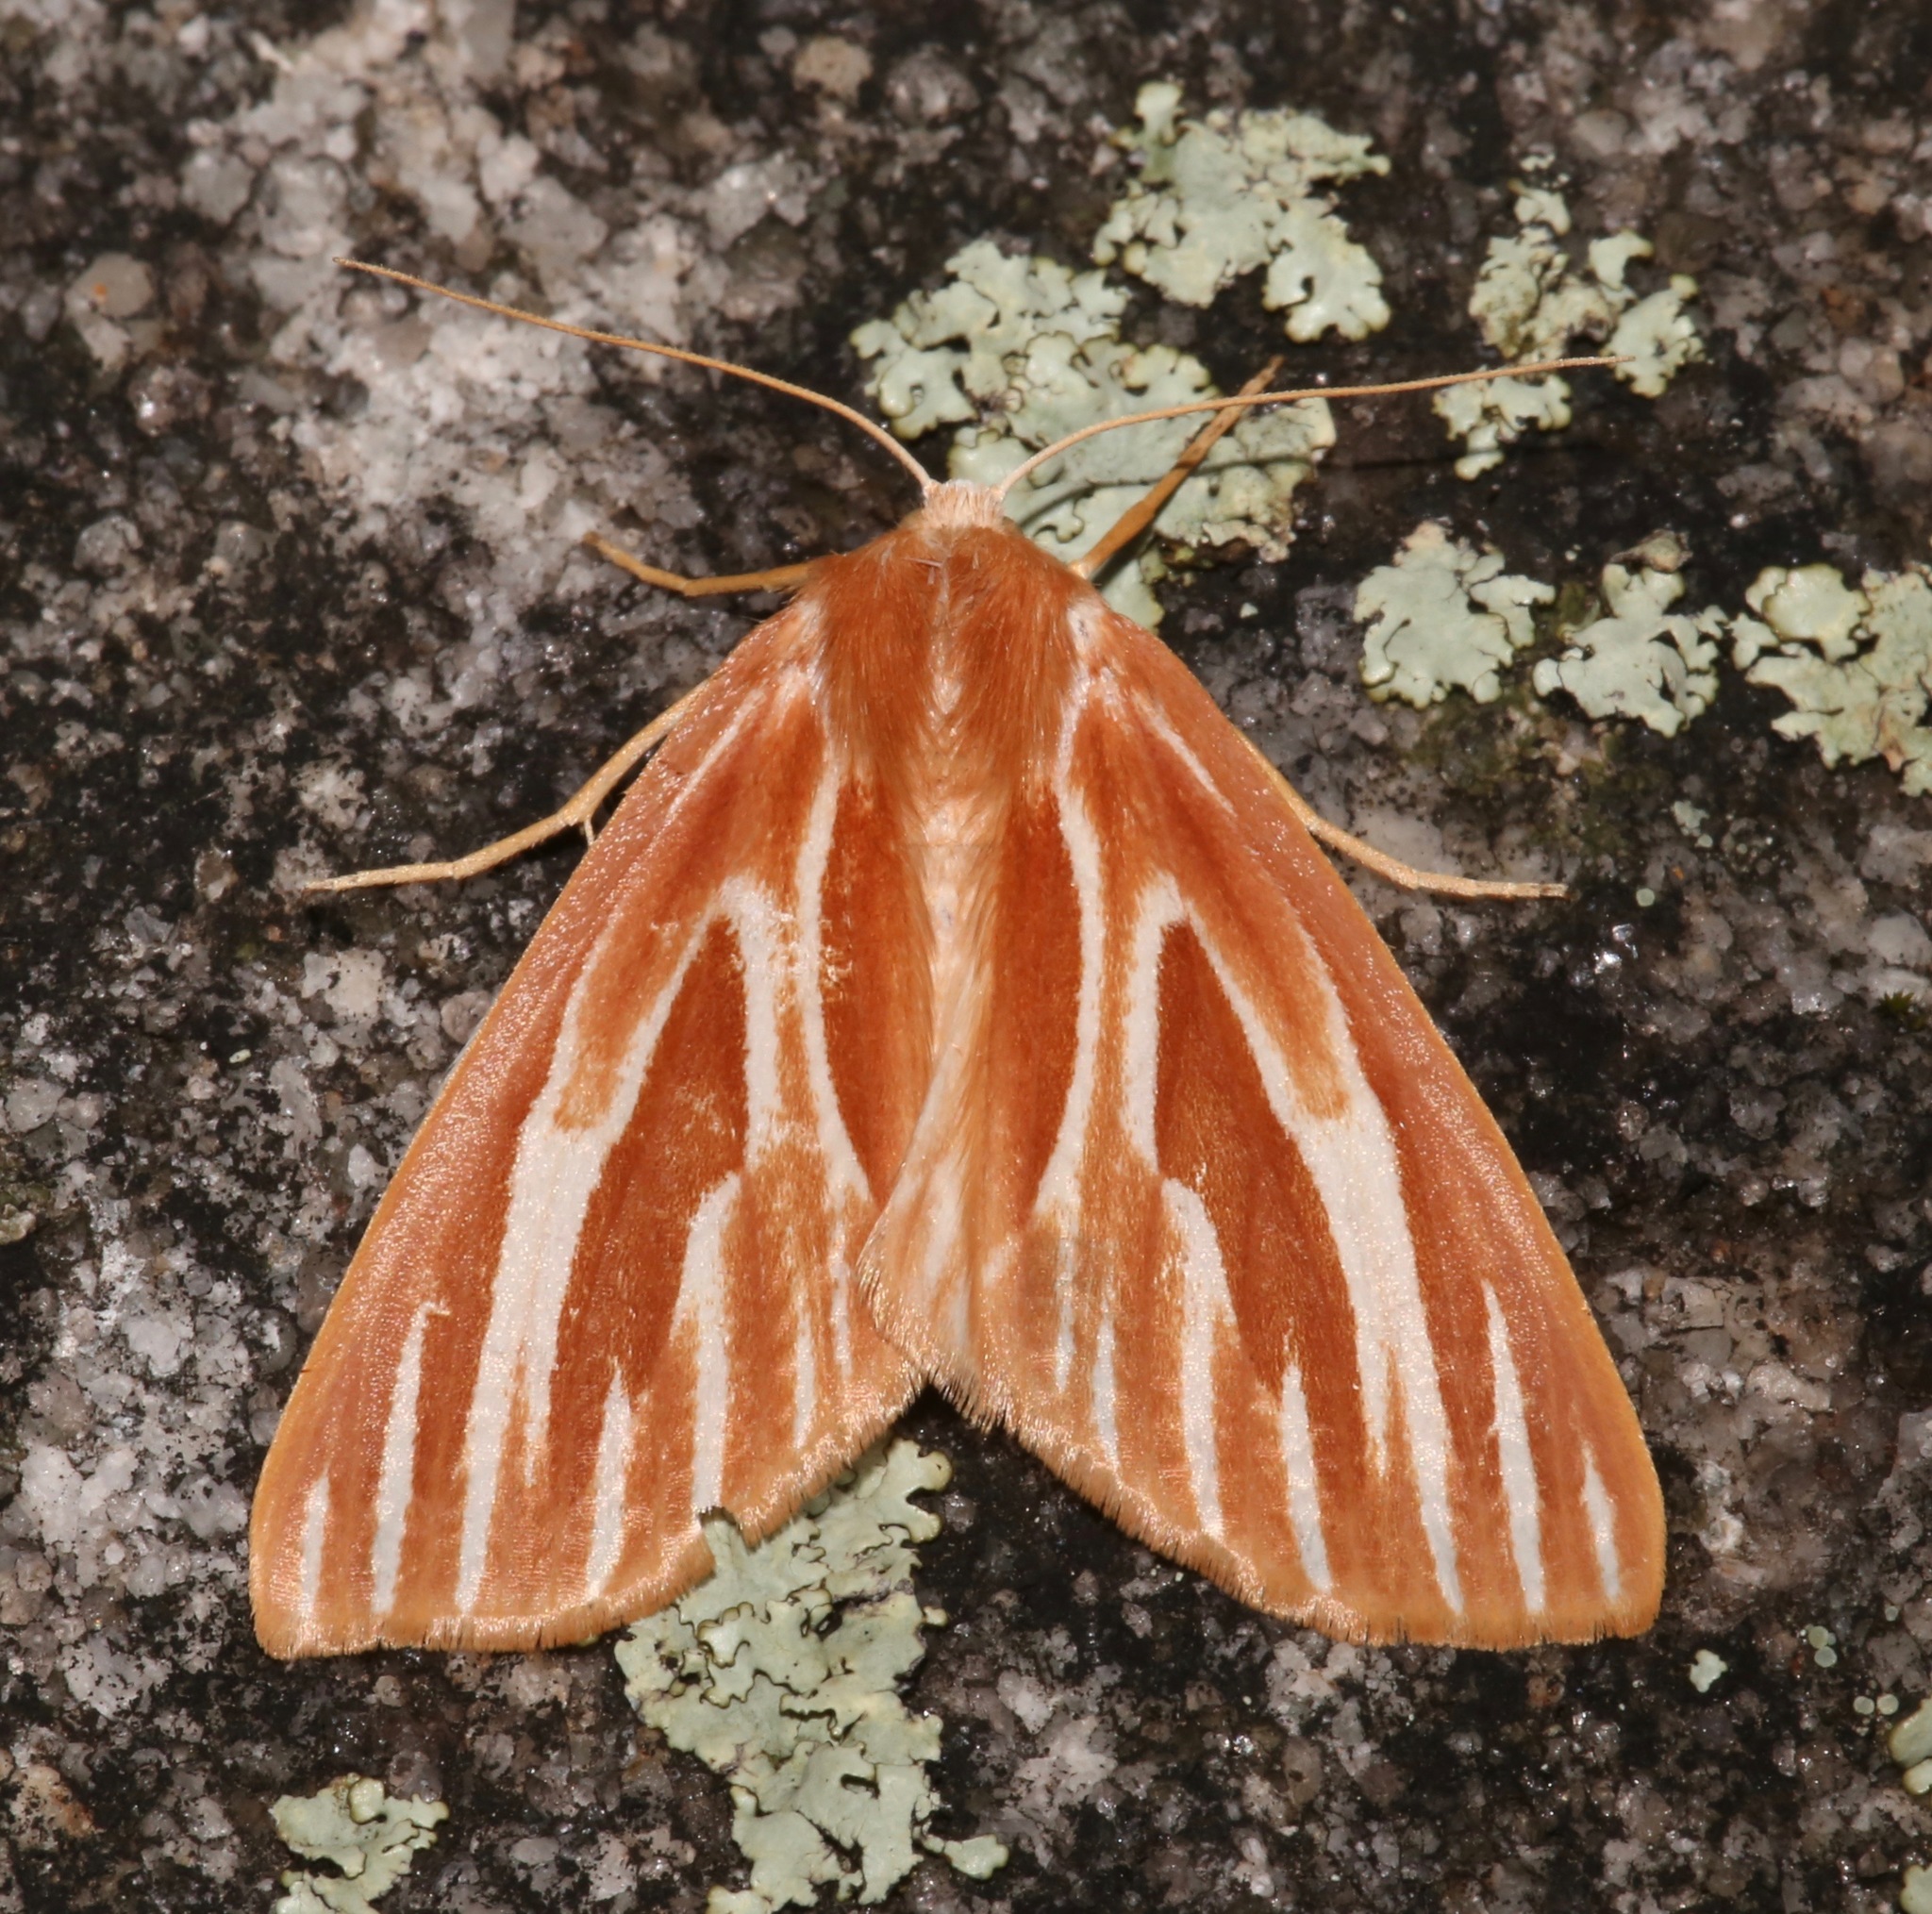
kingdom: Animalia
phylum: Arthropoda
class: Insecta
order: Lepidoptera
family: Geometridae
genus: Sabulodes
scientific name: Sabulodes niveostriata
